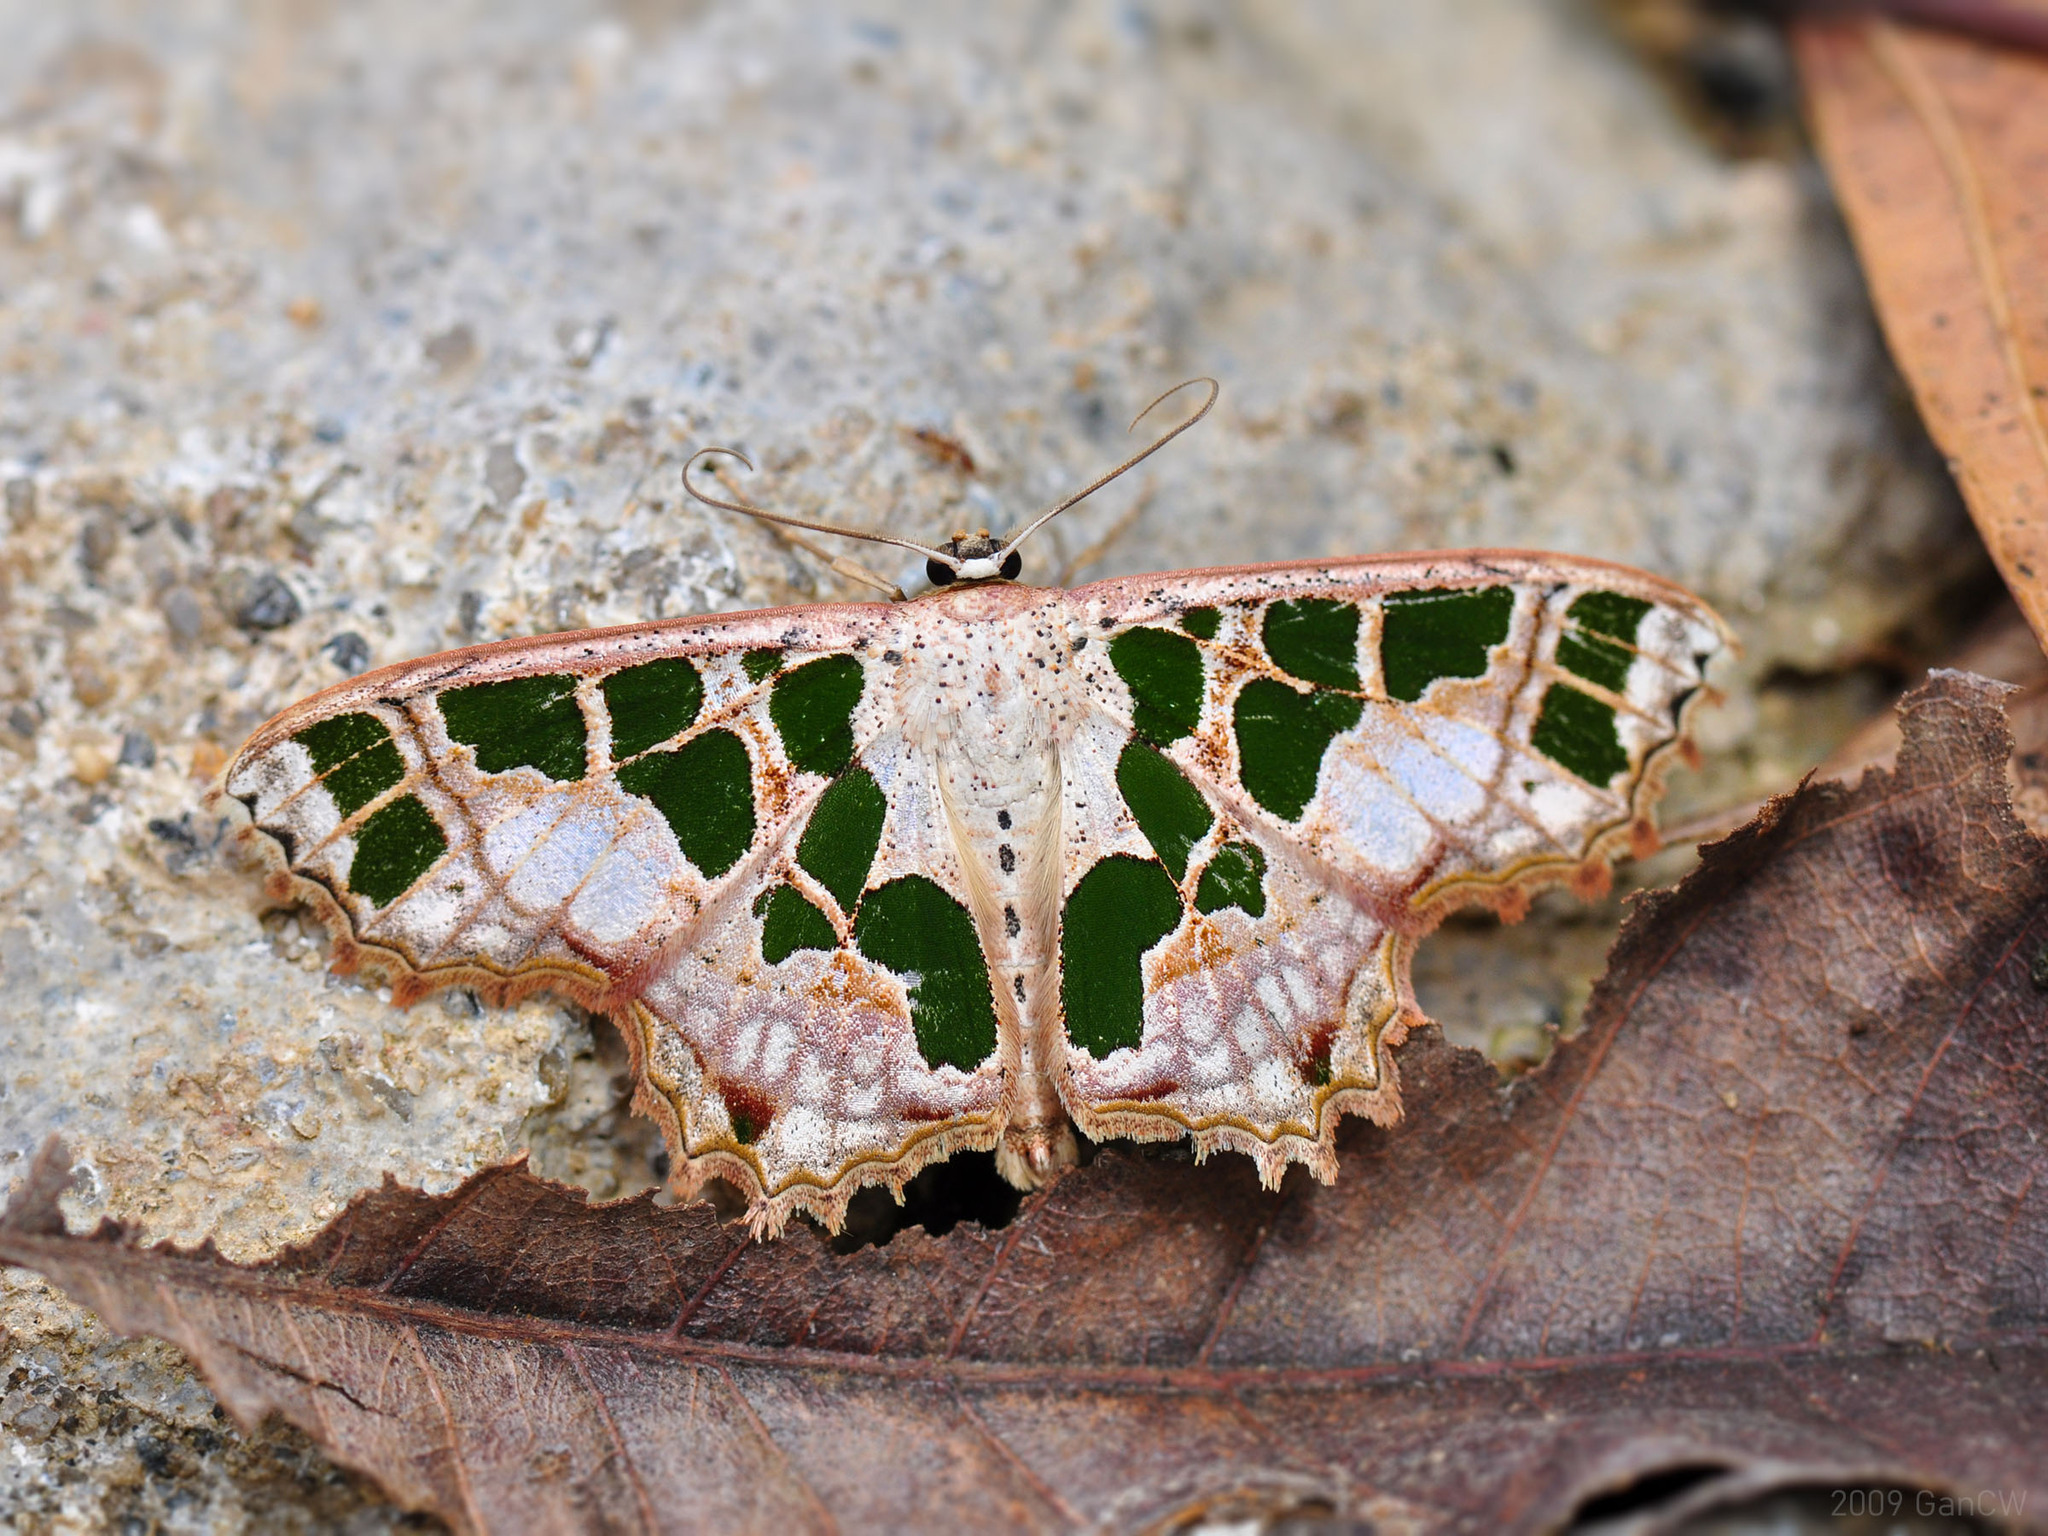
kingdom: Animalia
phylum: Arthropoda
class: Insecta
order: Lepidoptera
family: Geometridae
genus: Scopula
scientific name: Scopula divisaria
